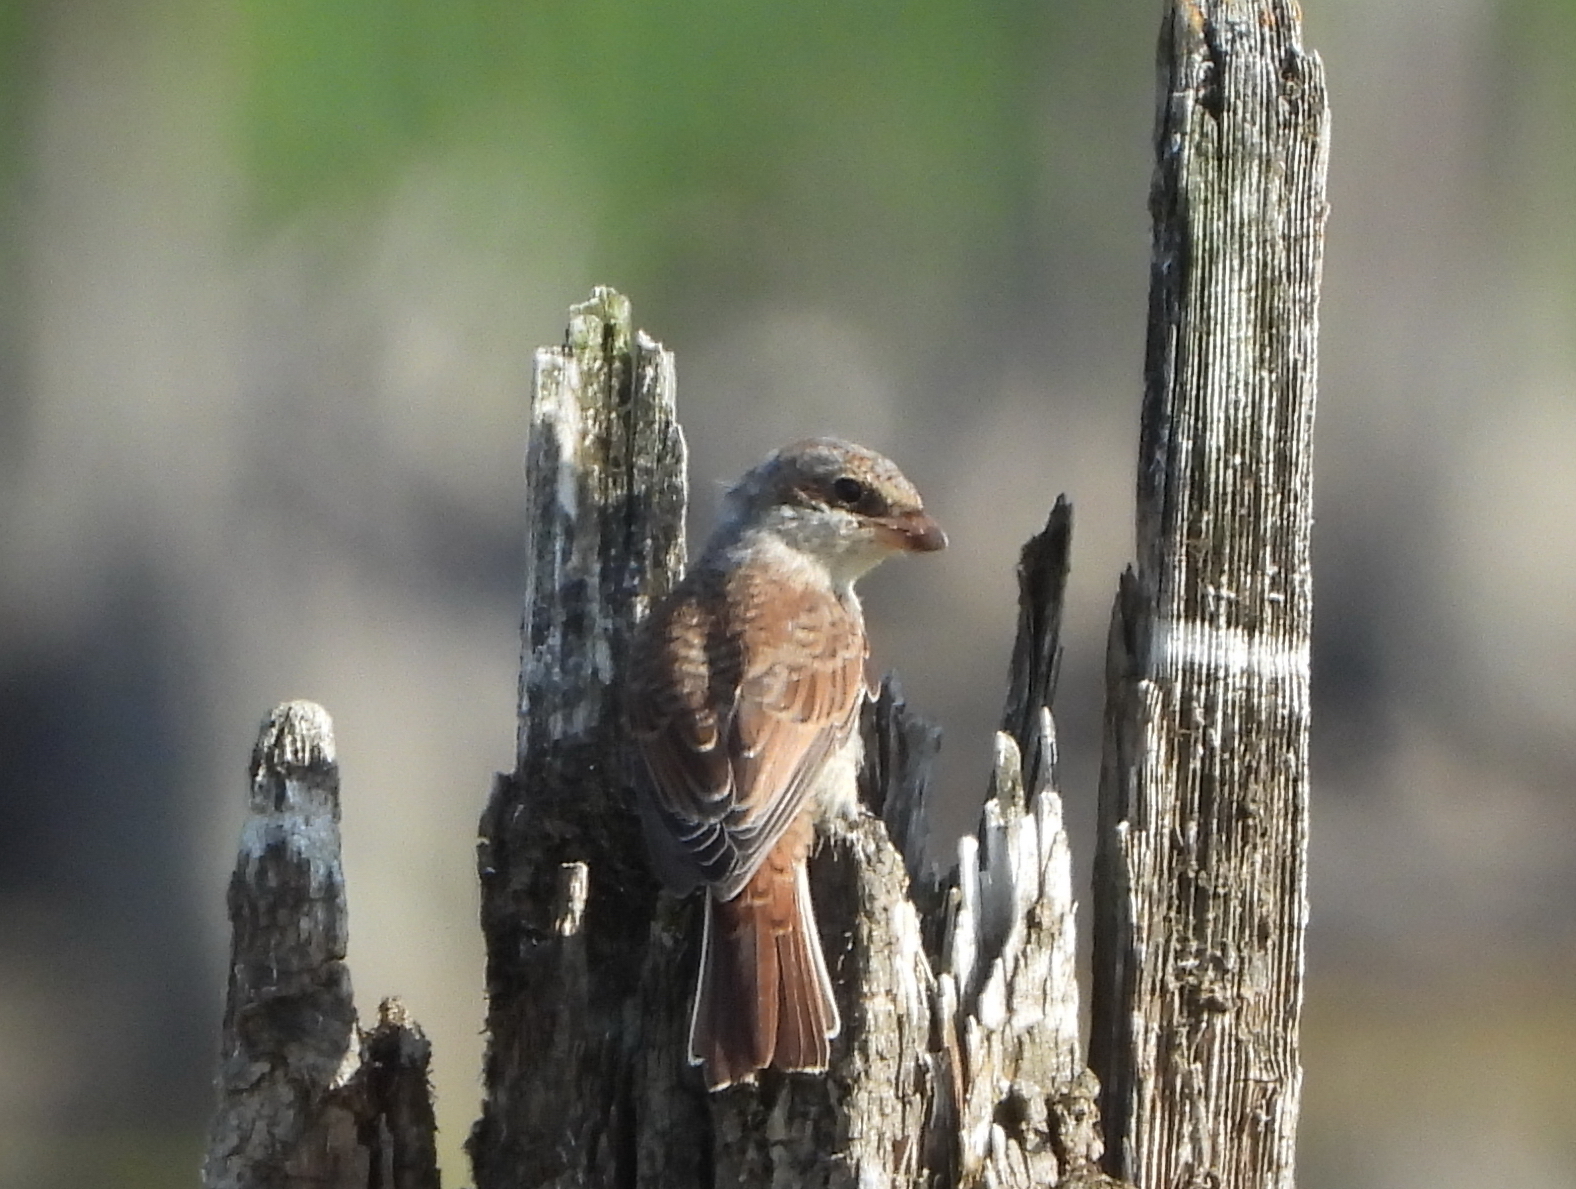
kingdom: Animalia
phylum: Chordata
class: Aves
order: Passeriformes
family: Laniidae
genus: Lanius
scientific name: Lanius collurio
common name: Red-backed shrike
